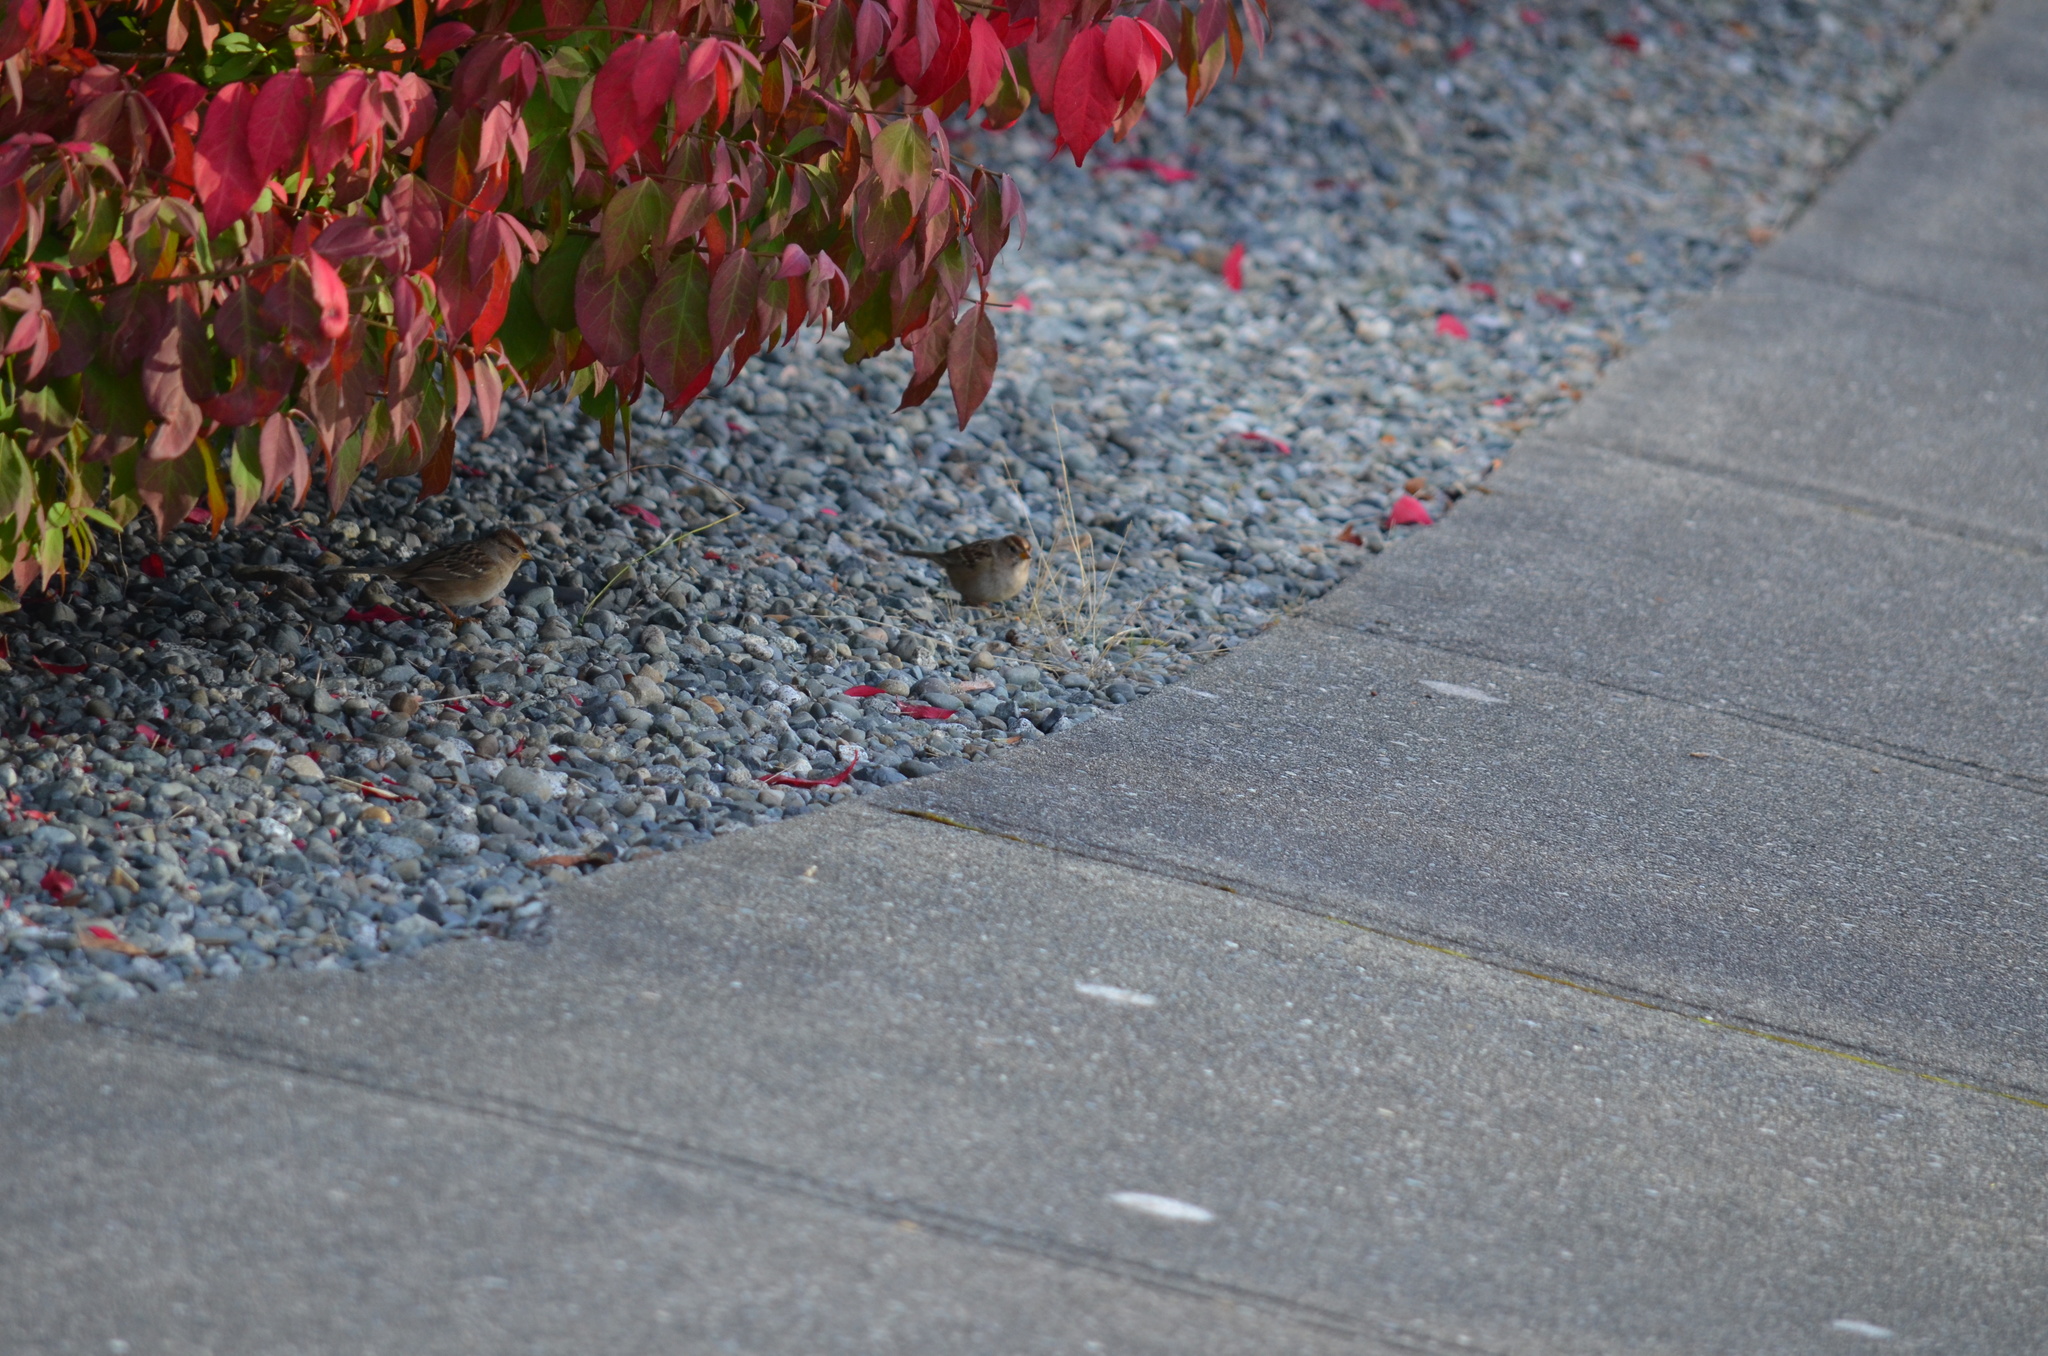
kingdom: Animalia
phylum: Chordata
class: Aves
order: Passeriformes
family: Passerellidae
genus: Zonotrichia
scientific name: Zonotrichia leucophrys
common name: White-crowned sparrow
